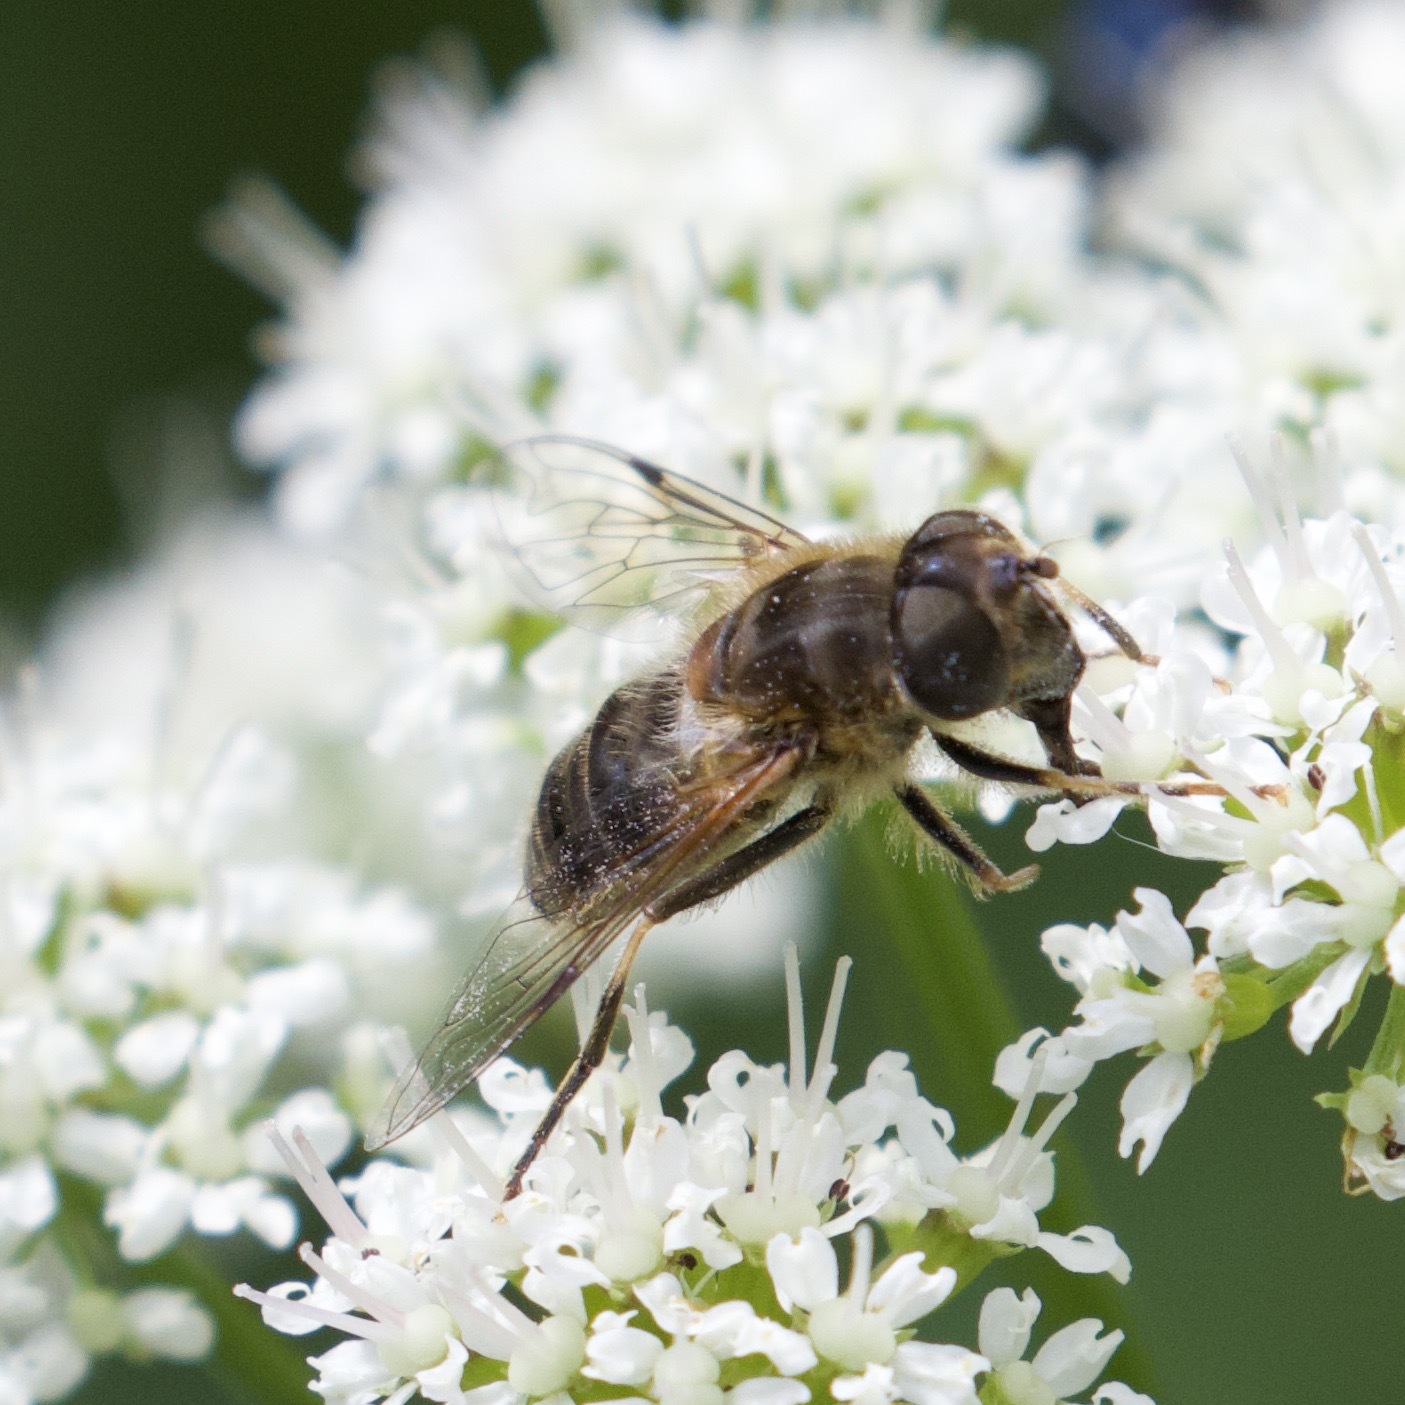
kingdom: Animalia
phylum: Arthropoda
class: Insecta
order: Diptera
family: Syrphidae
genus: Eristalis
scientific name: Eristalis pertinax
